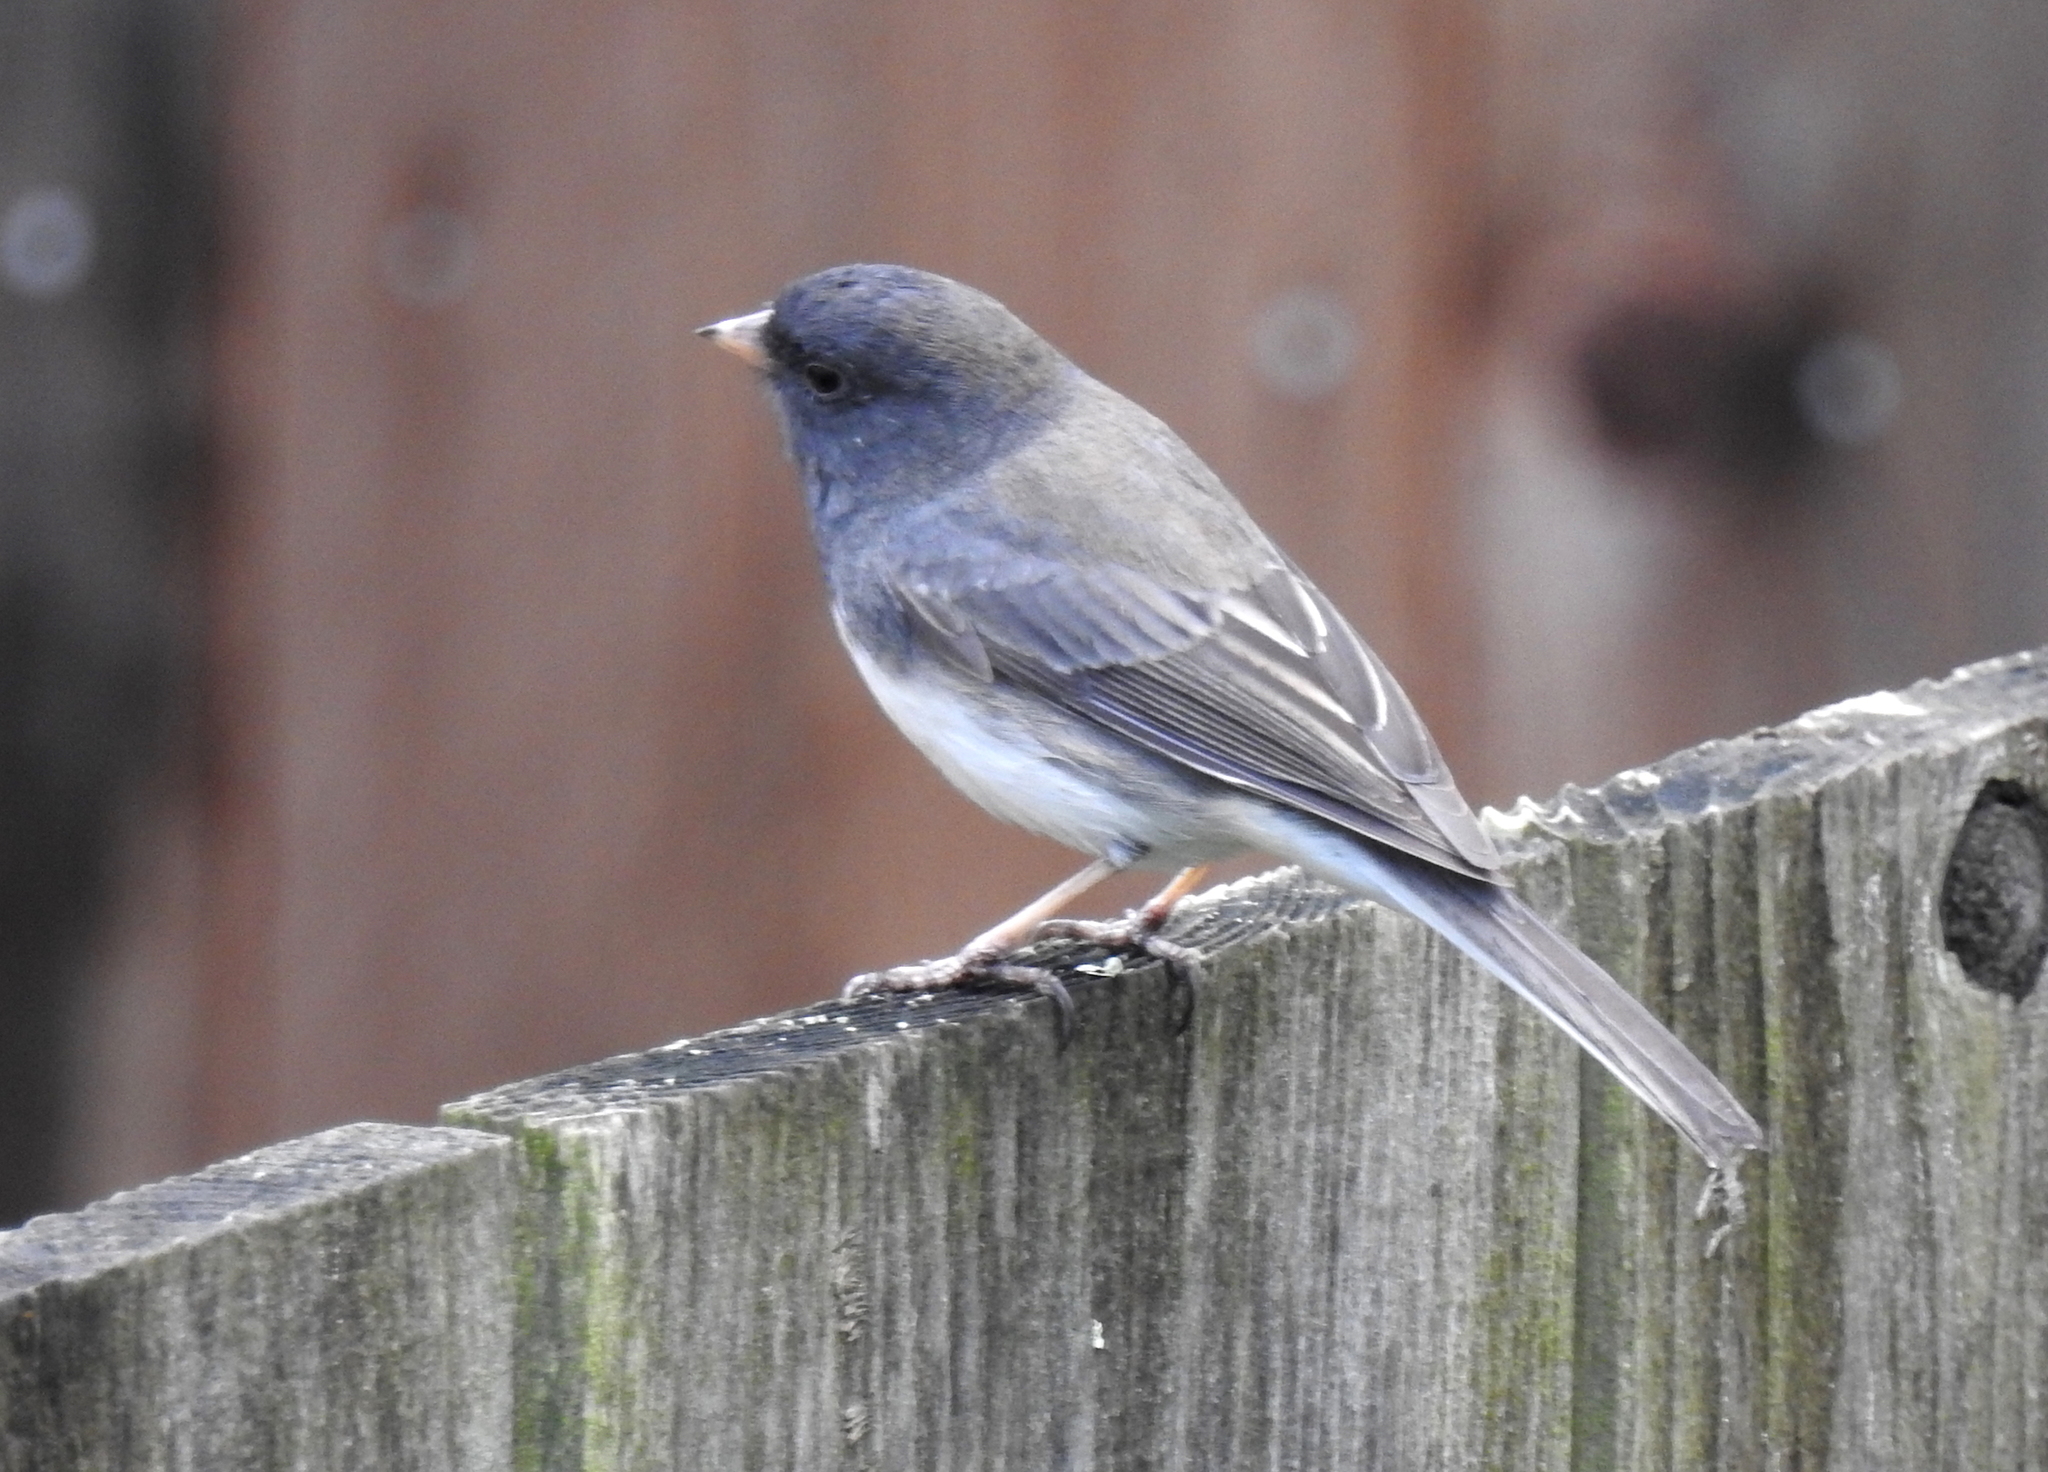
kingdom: Animalia
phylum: Chordata
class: Aves
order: Passeriformes
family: Passerellidae
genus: Junco
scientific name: Junco hyemalis
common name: Dark-eyed junco
